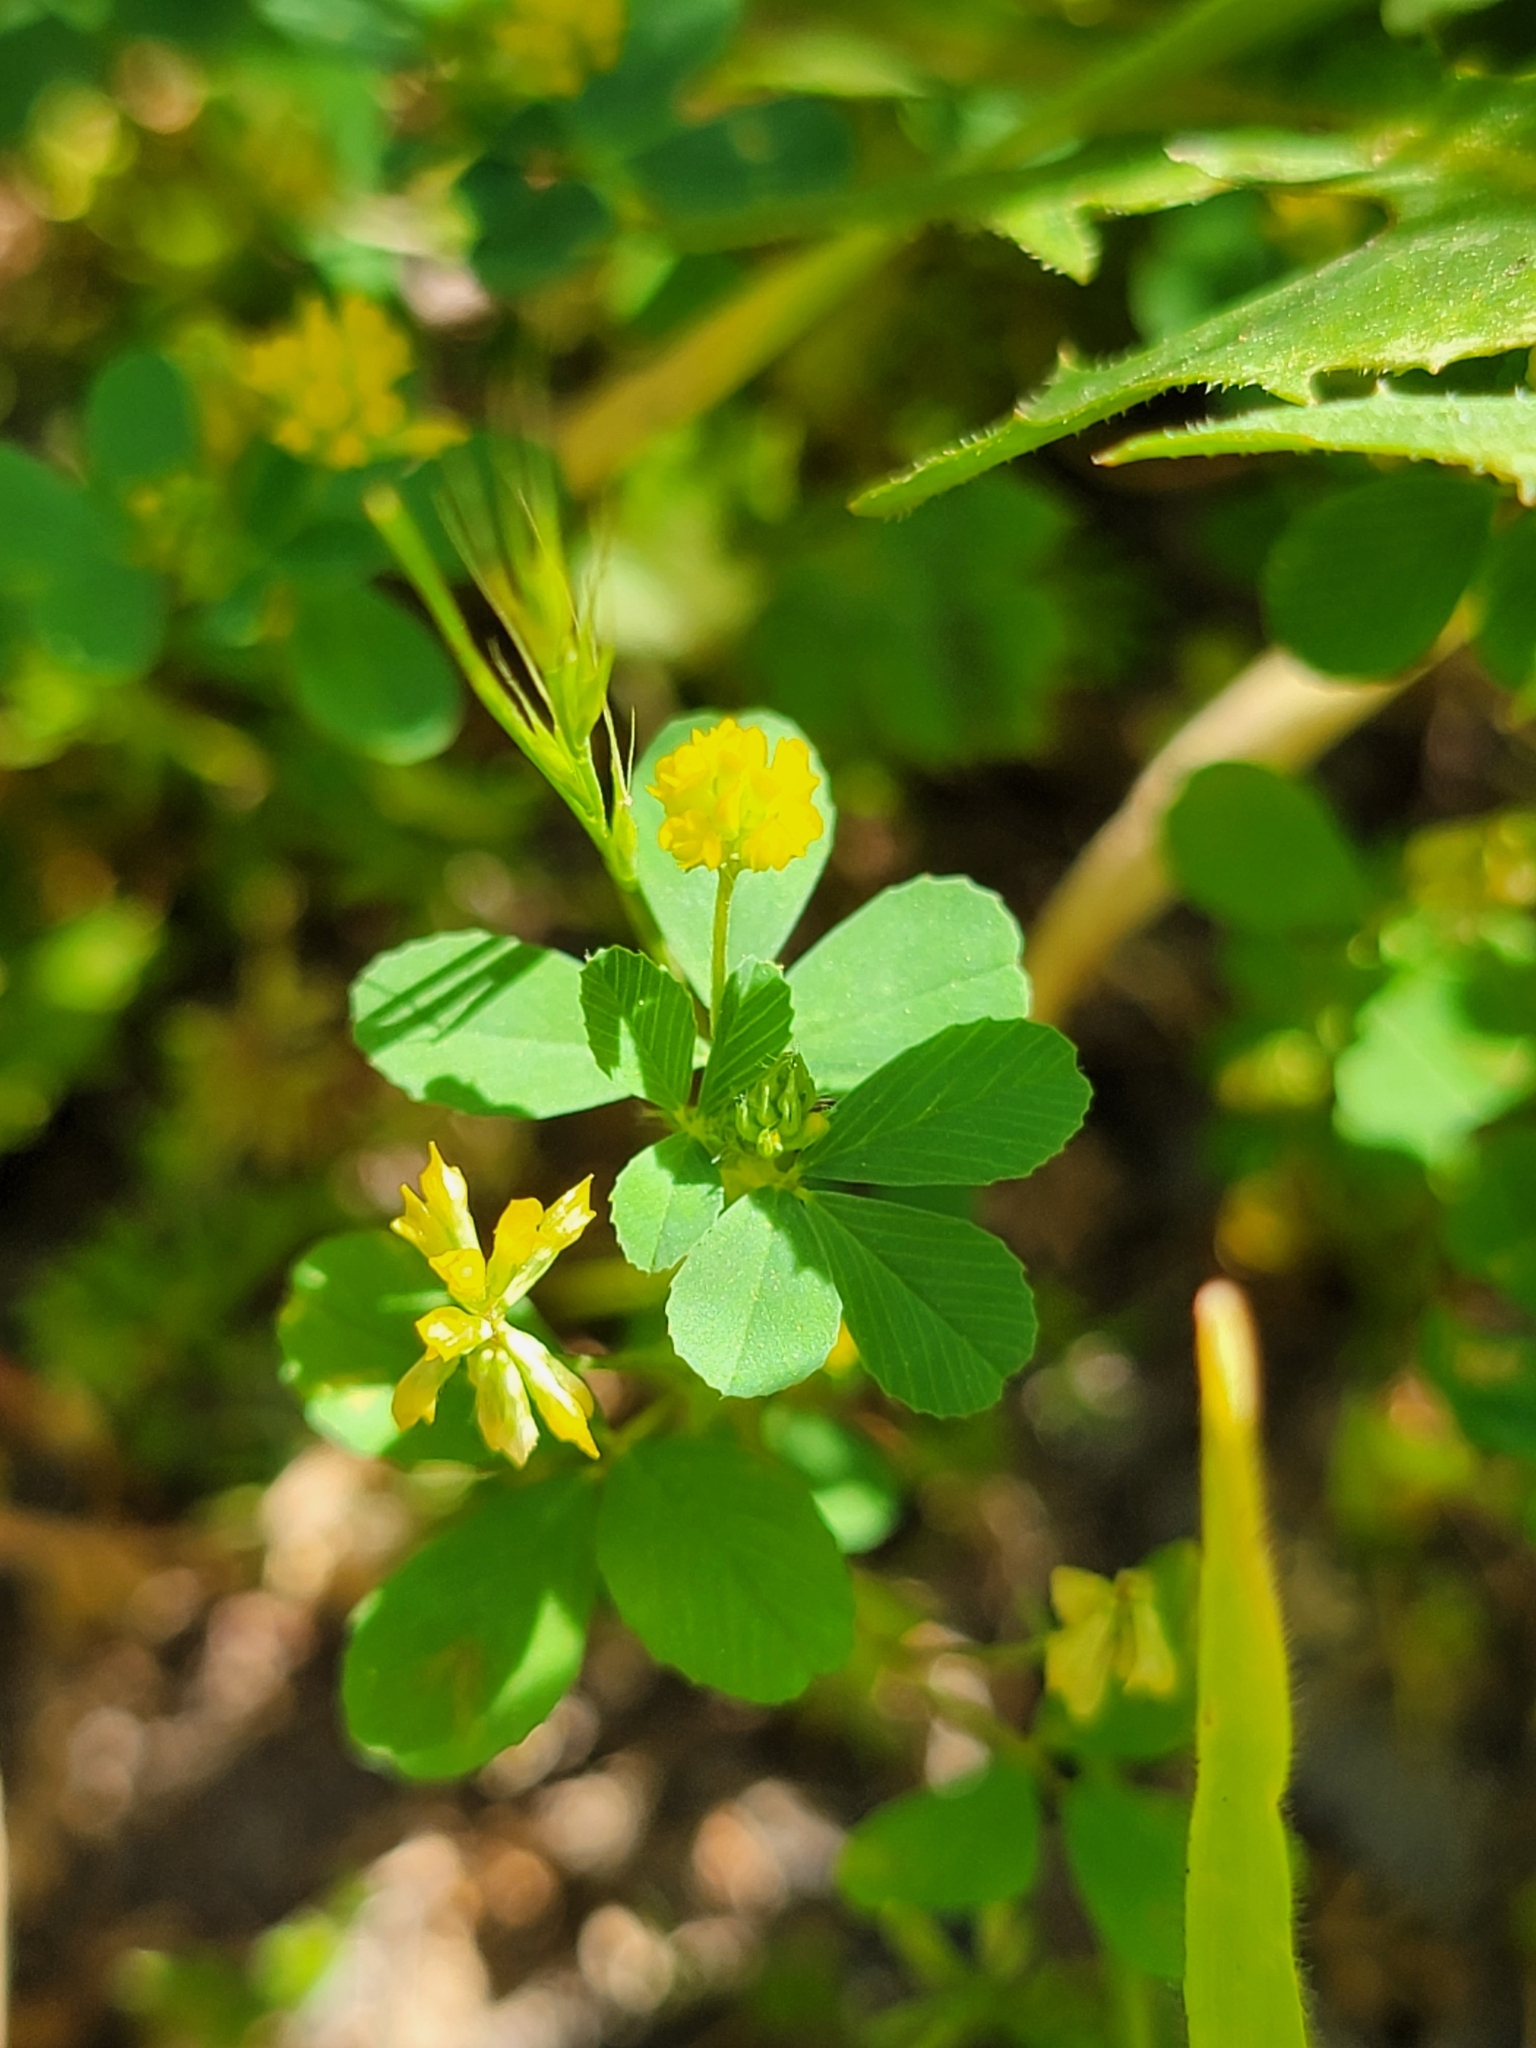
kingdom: Plantae
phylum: Tracheophyta
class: Magnoliopsida
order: Fabales
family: Fabaceae
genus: Trifolium
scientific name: Trifolium dubium
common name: Suckling clover
